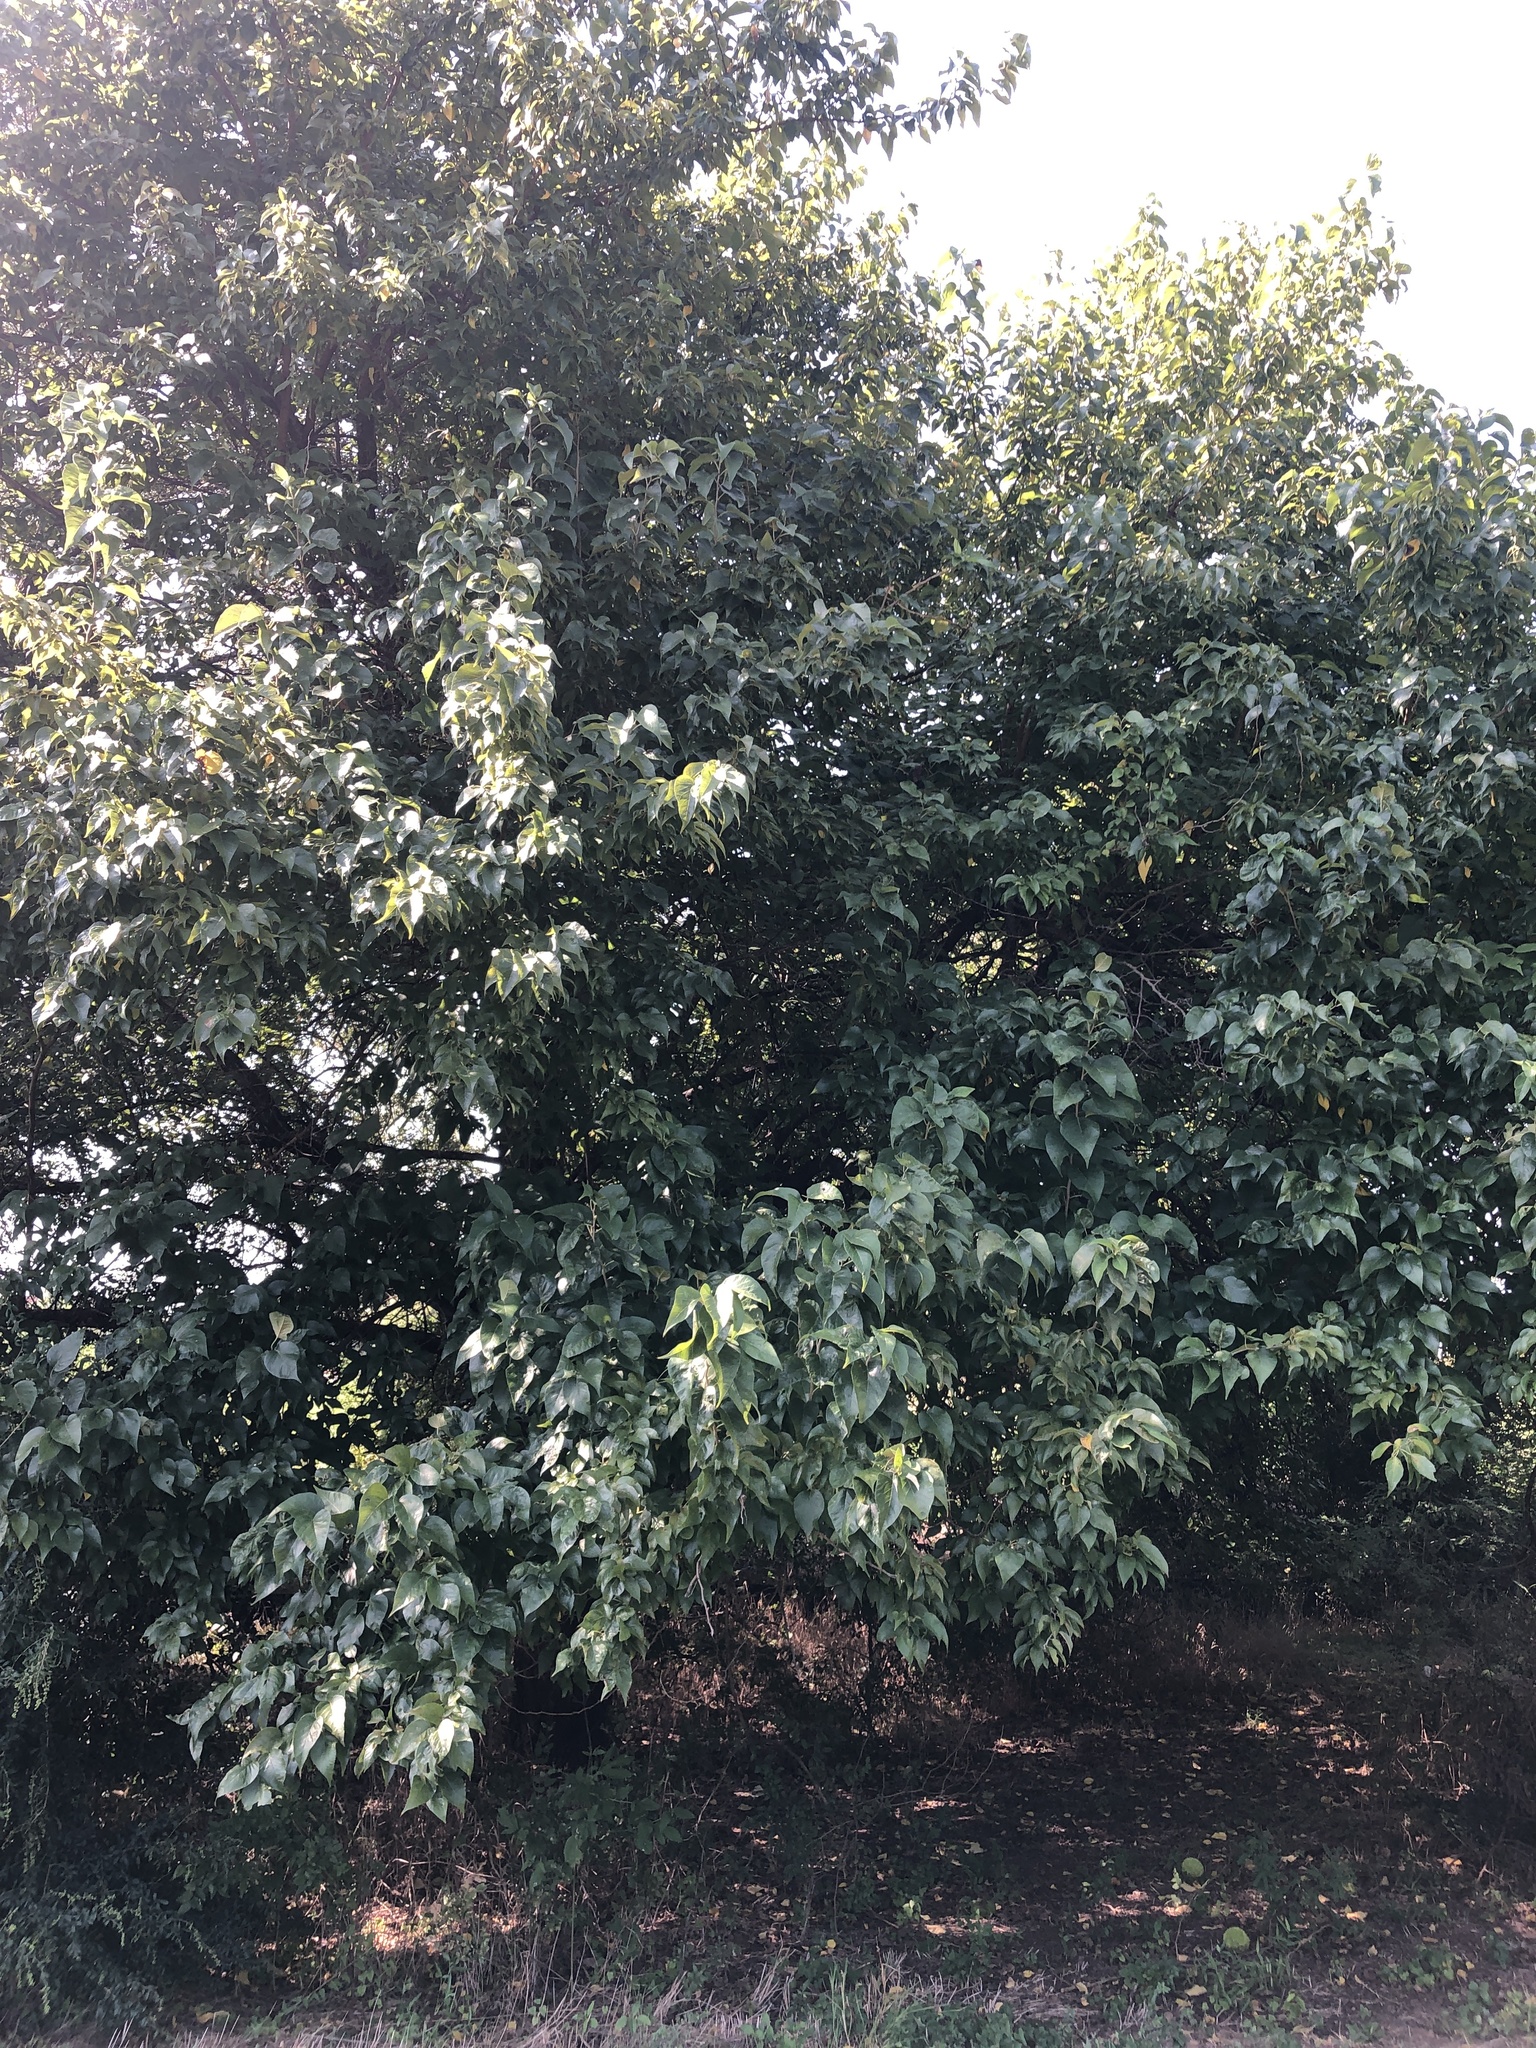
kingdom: Plantae
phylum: Tracheophyta
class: Magnoliopsida
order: Rosales
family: Moraceae
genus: Maclura
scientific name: Maclura pomifera
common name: Osage-orange
